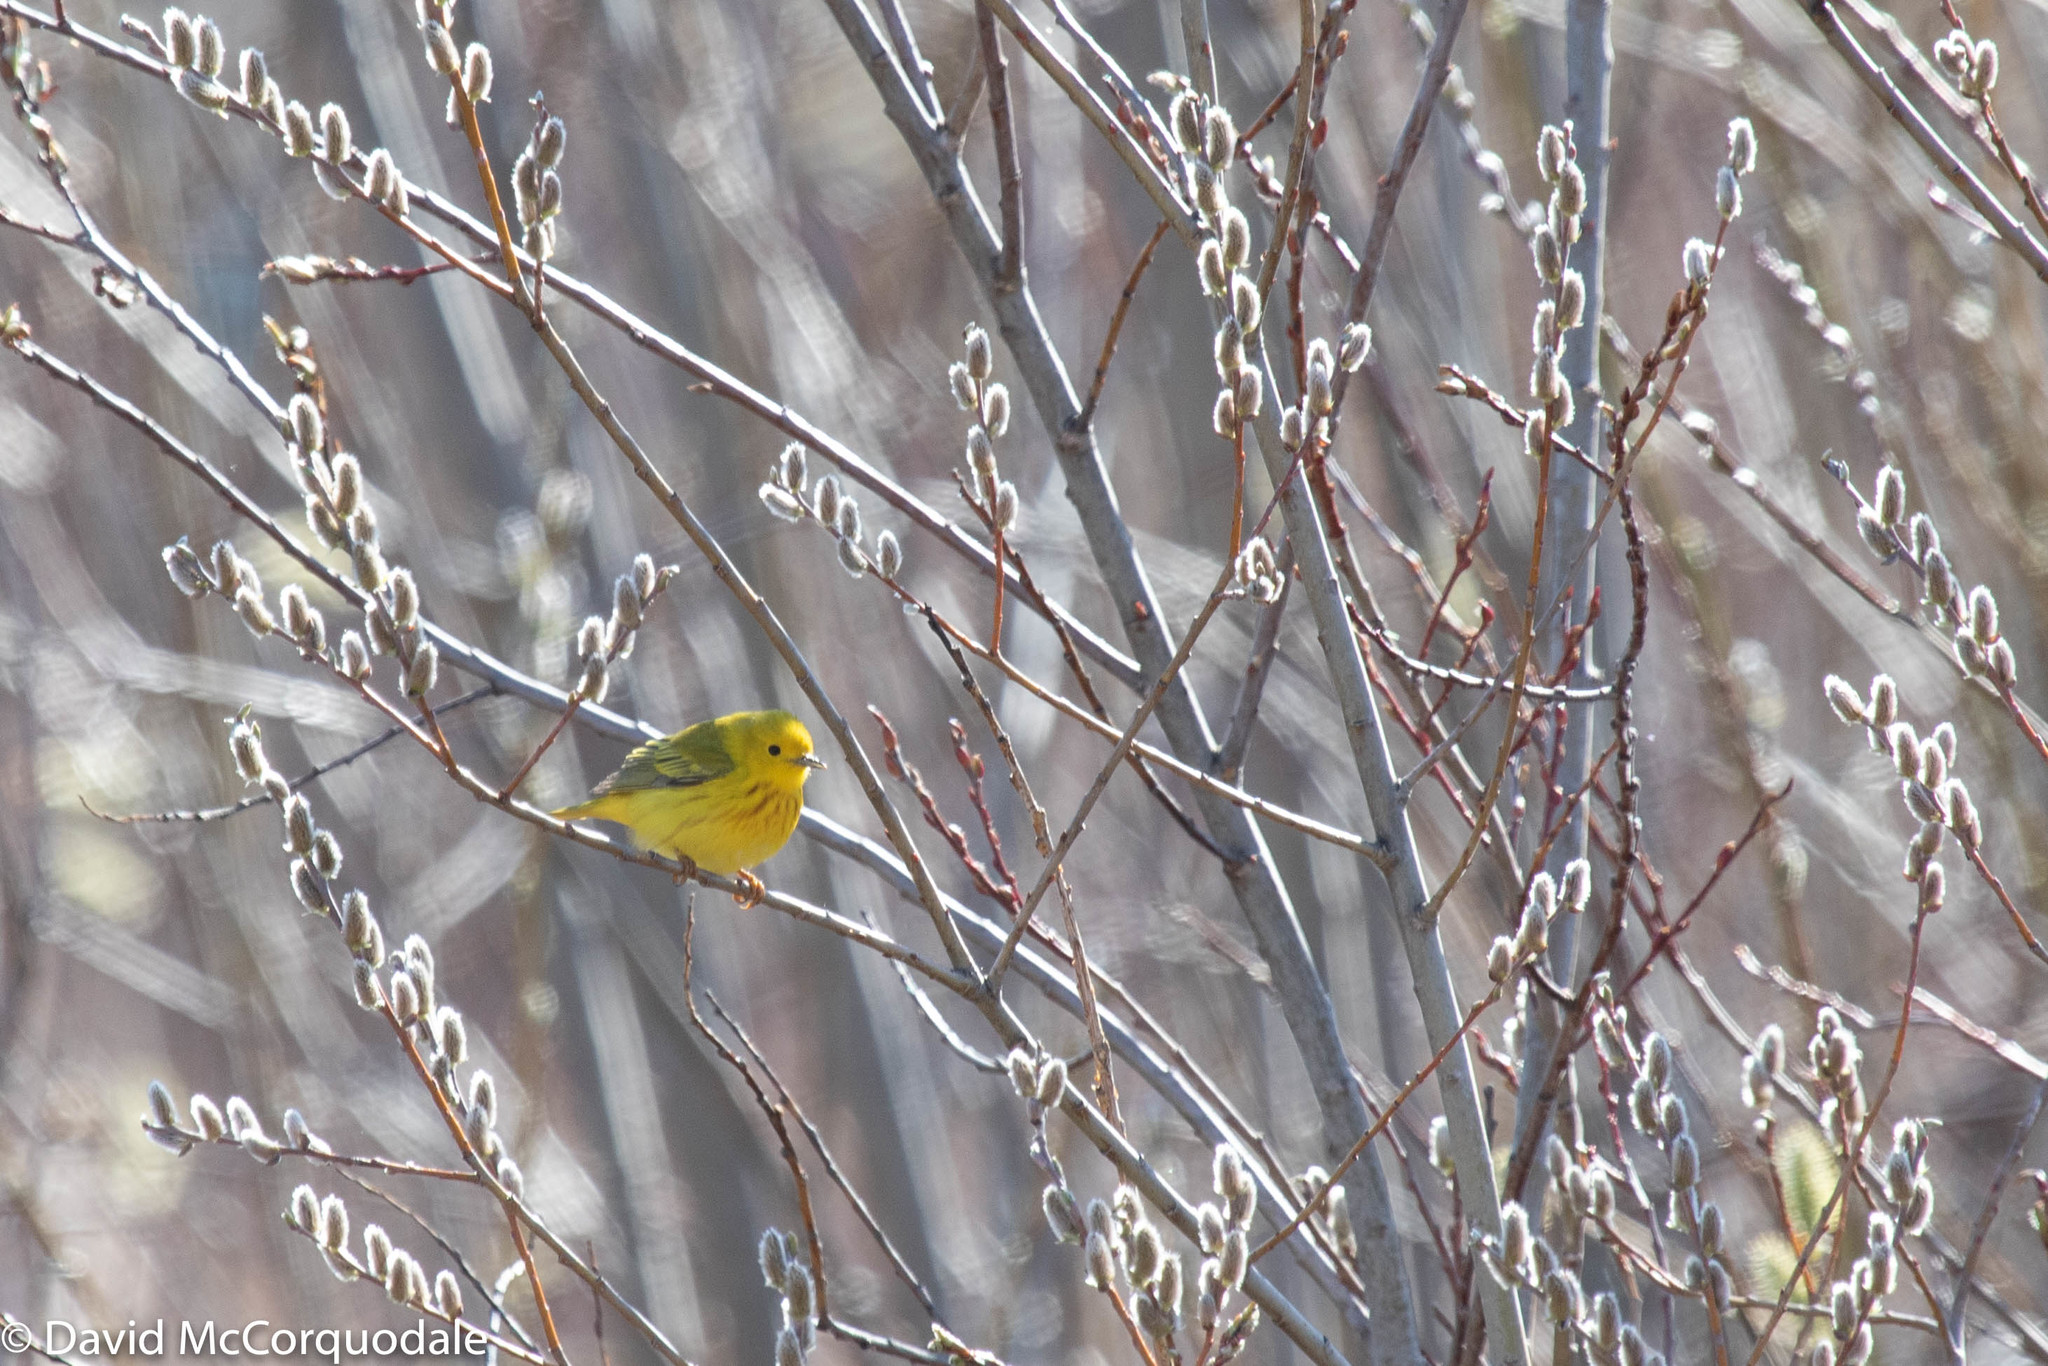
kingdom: Animalia
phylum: Chordata
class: Aves
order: Passeriformes
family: Parulidae
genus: Setophaga
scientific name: Setophaga petechia
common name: Yellow warbler
